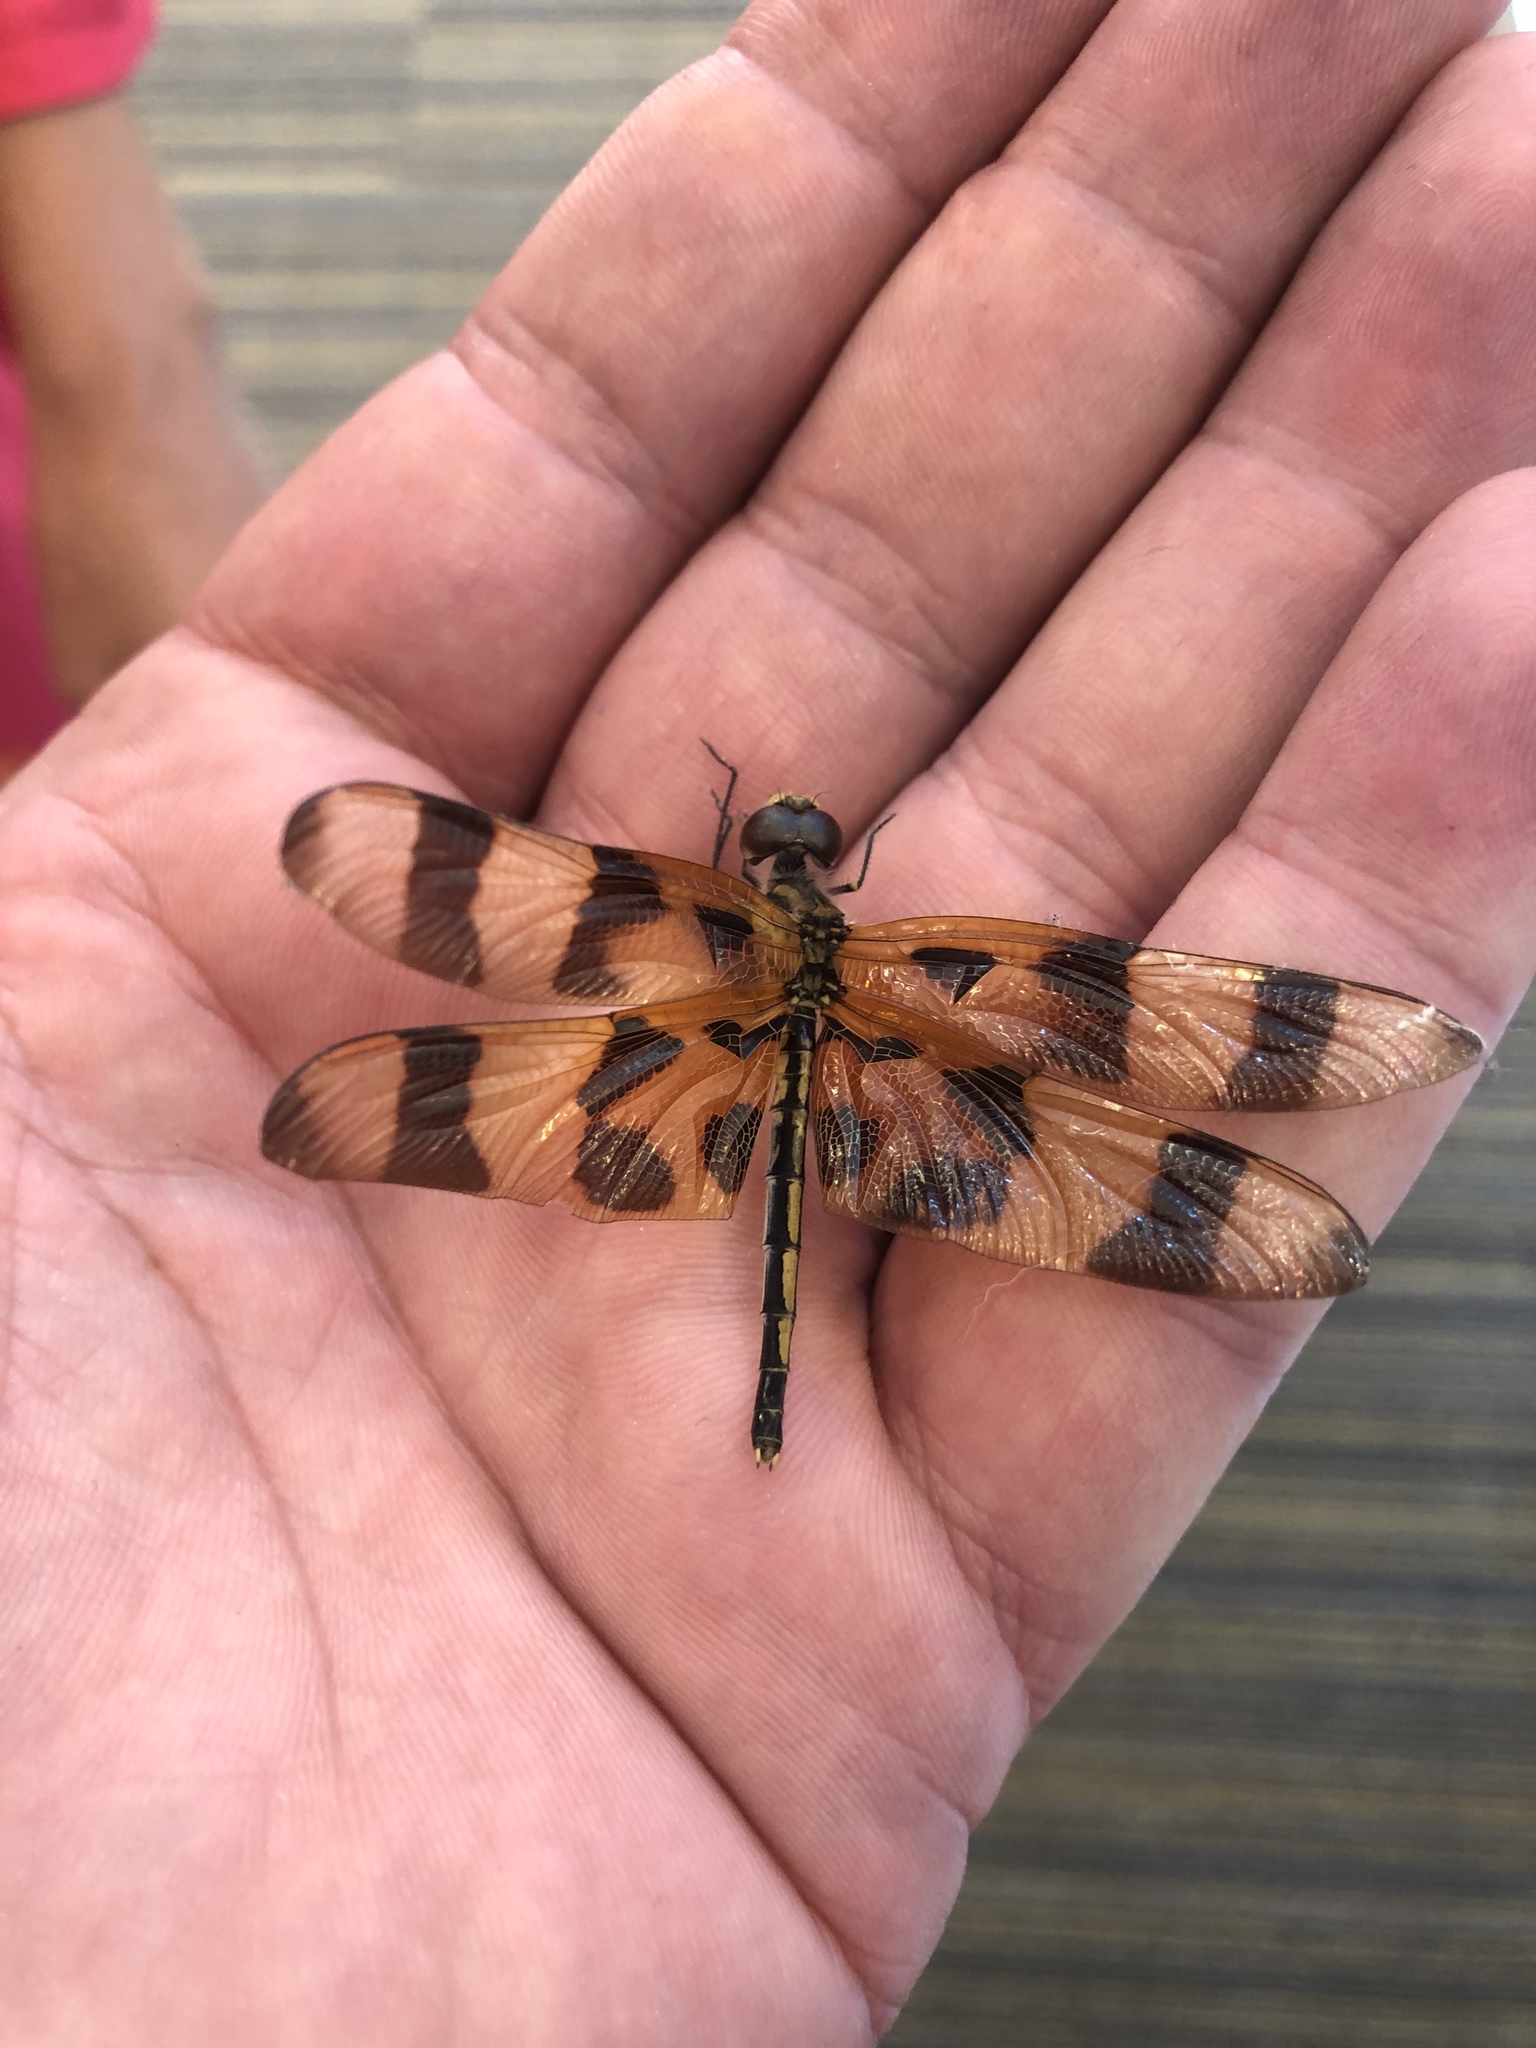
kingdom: Animalia
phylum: Arthropoda
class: Insecta
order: Odonata
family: Libellulidae
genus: Celithemis
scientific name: Celithemis eponina
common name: Halloween pennant
